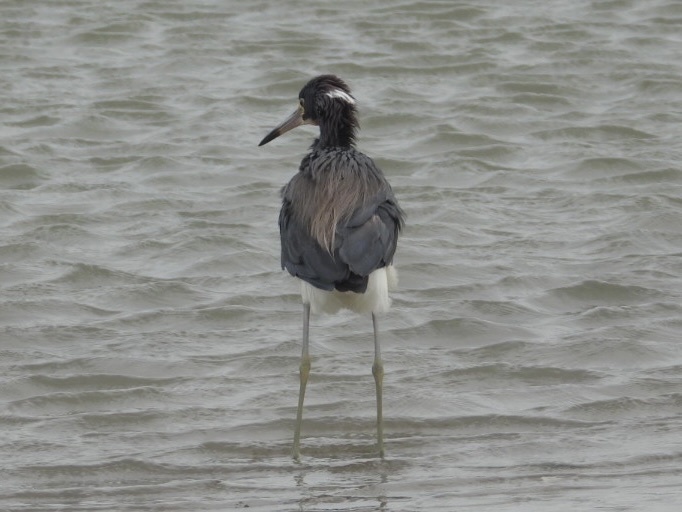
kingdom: Animalia
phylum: Chordata
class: Aves
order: Pelecaniformes
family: Ardeidae
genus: Egretta
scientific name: Egretta tricolor
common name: Tricolored heron
